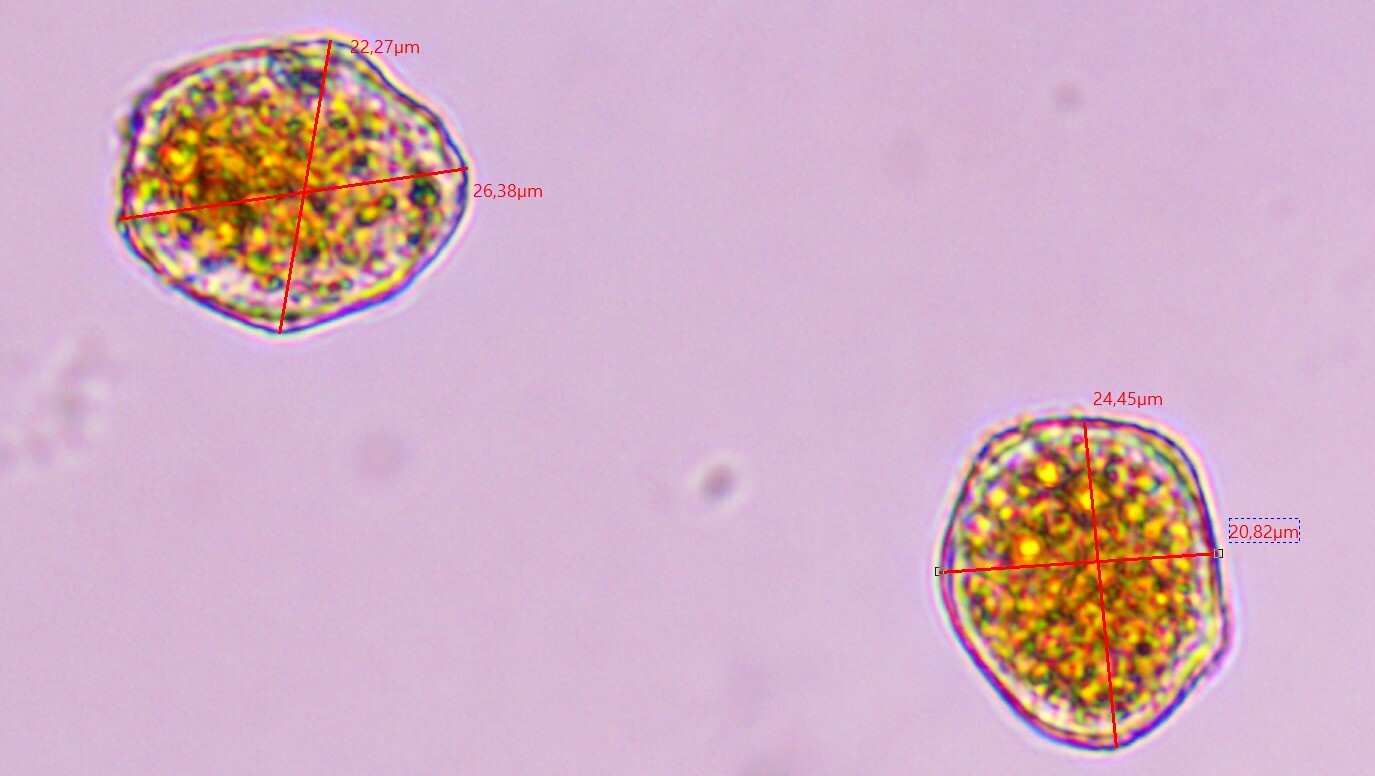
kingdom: Fungi
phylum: Basidiomycota
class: Pucciniomycetes
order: Pucciniales
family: Phragmidiaceae
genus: Phragmidium
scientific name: Phragmidium tuberculatum
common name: Rose rust
